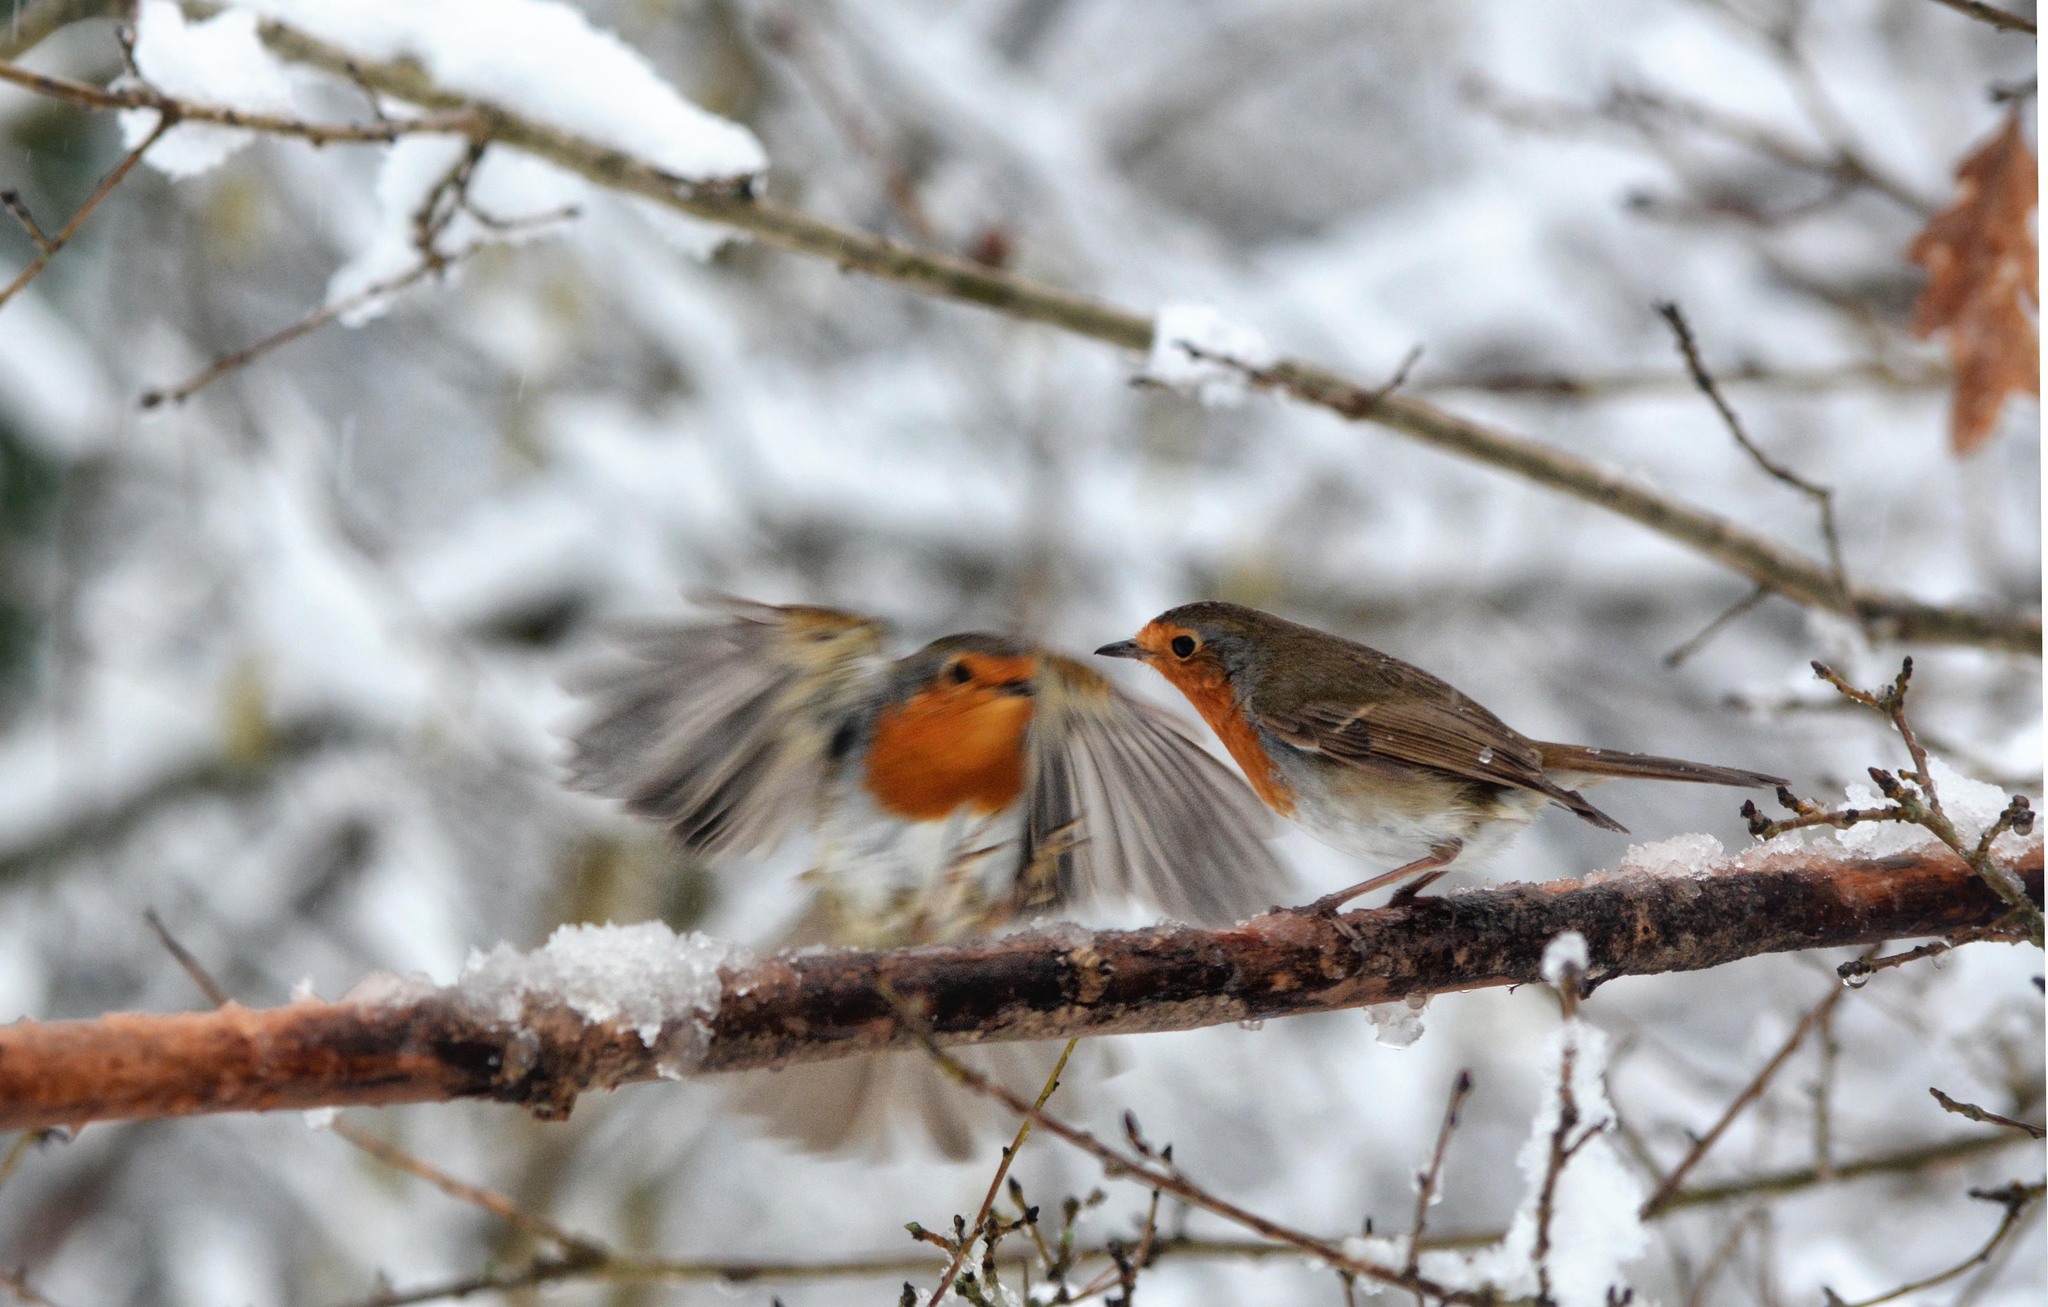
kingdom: Animalia
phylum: Chordata
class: Aves
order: Passeriformes
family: Muscicapidae
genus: Erithacus
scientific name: Erithacus rubecula
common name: European robin
